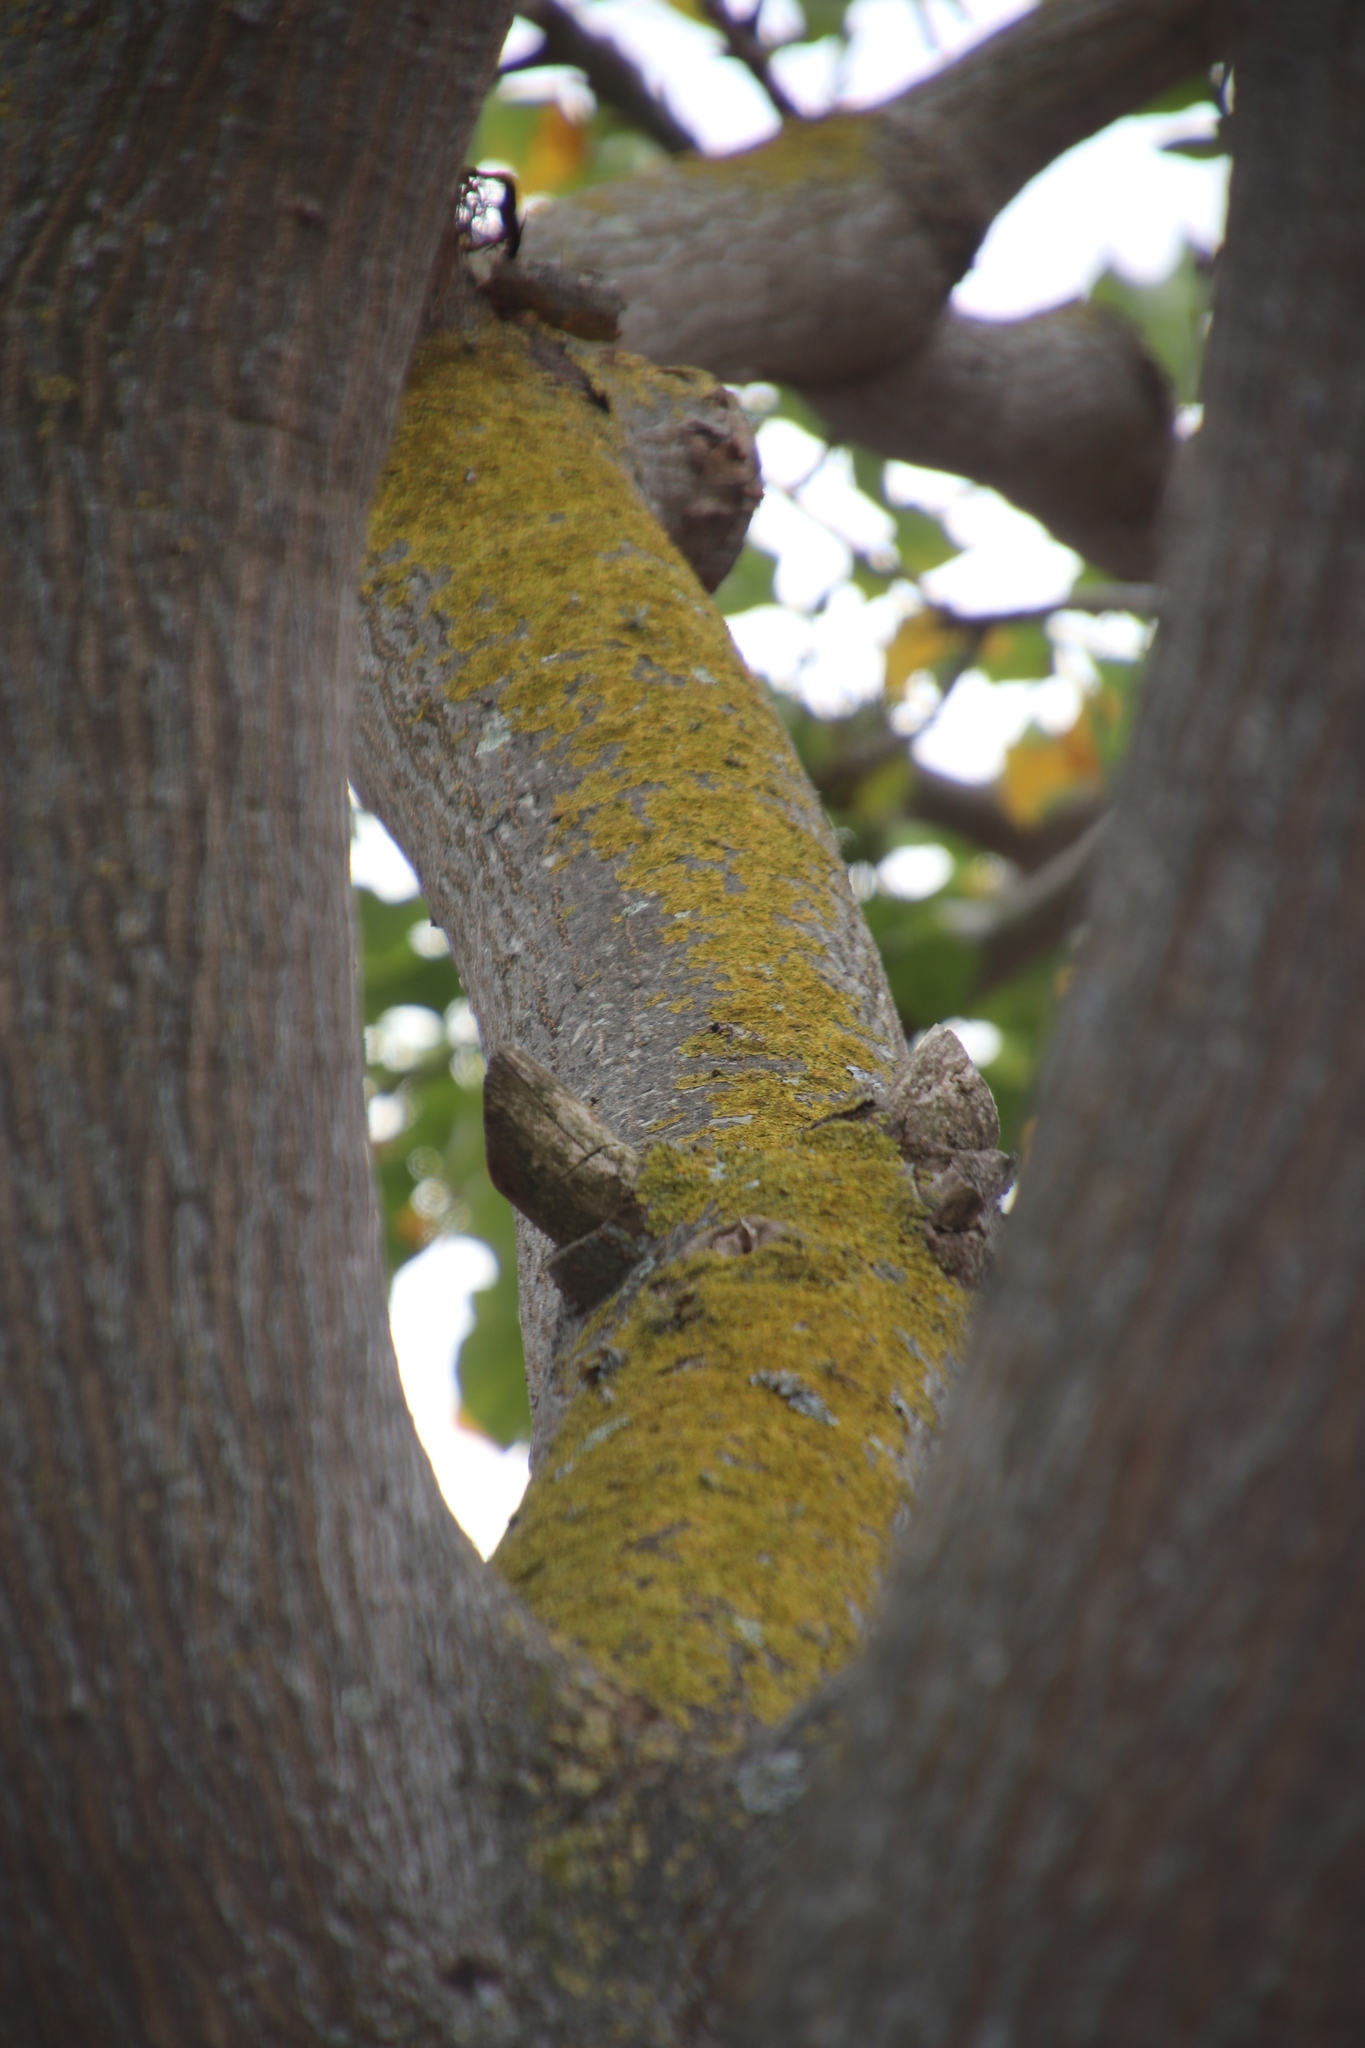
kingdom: Fungi
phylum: Ascomycota
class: Lecanoromycetes
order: Teloschistales
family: Teloschistaceae
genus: Xanthoria
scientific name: Xanthoria parietina
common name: Common orange lichen
